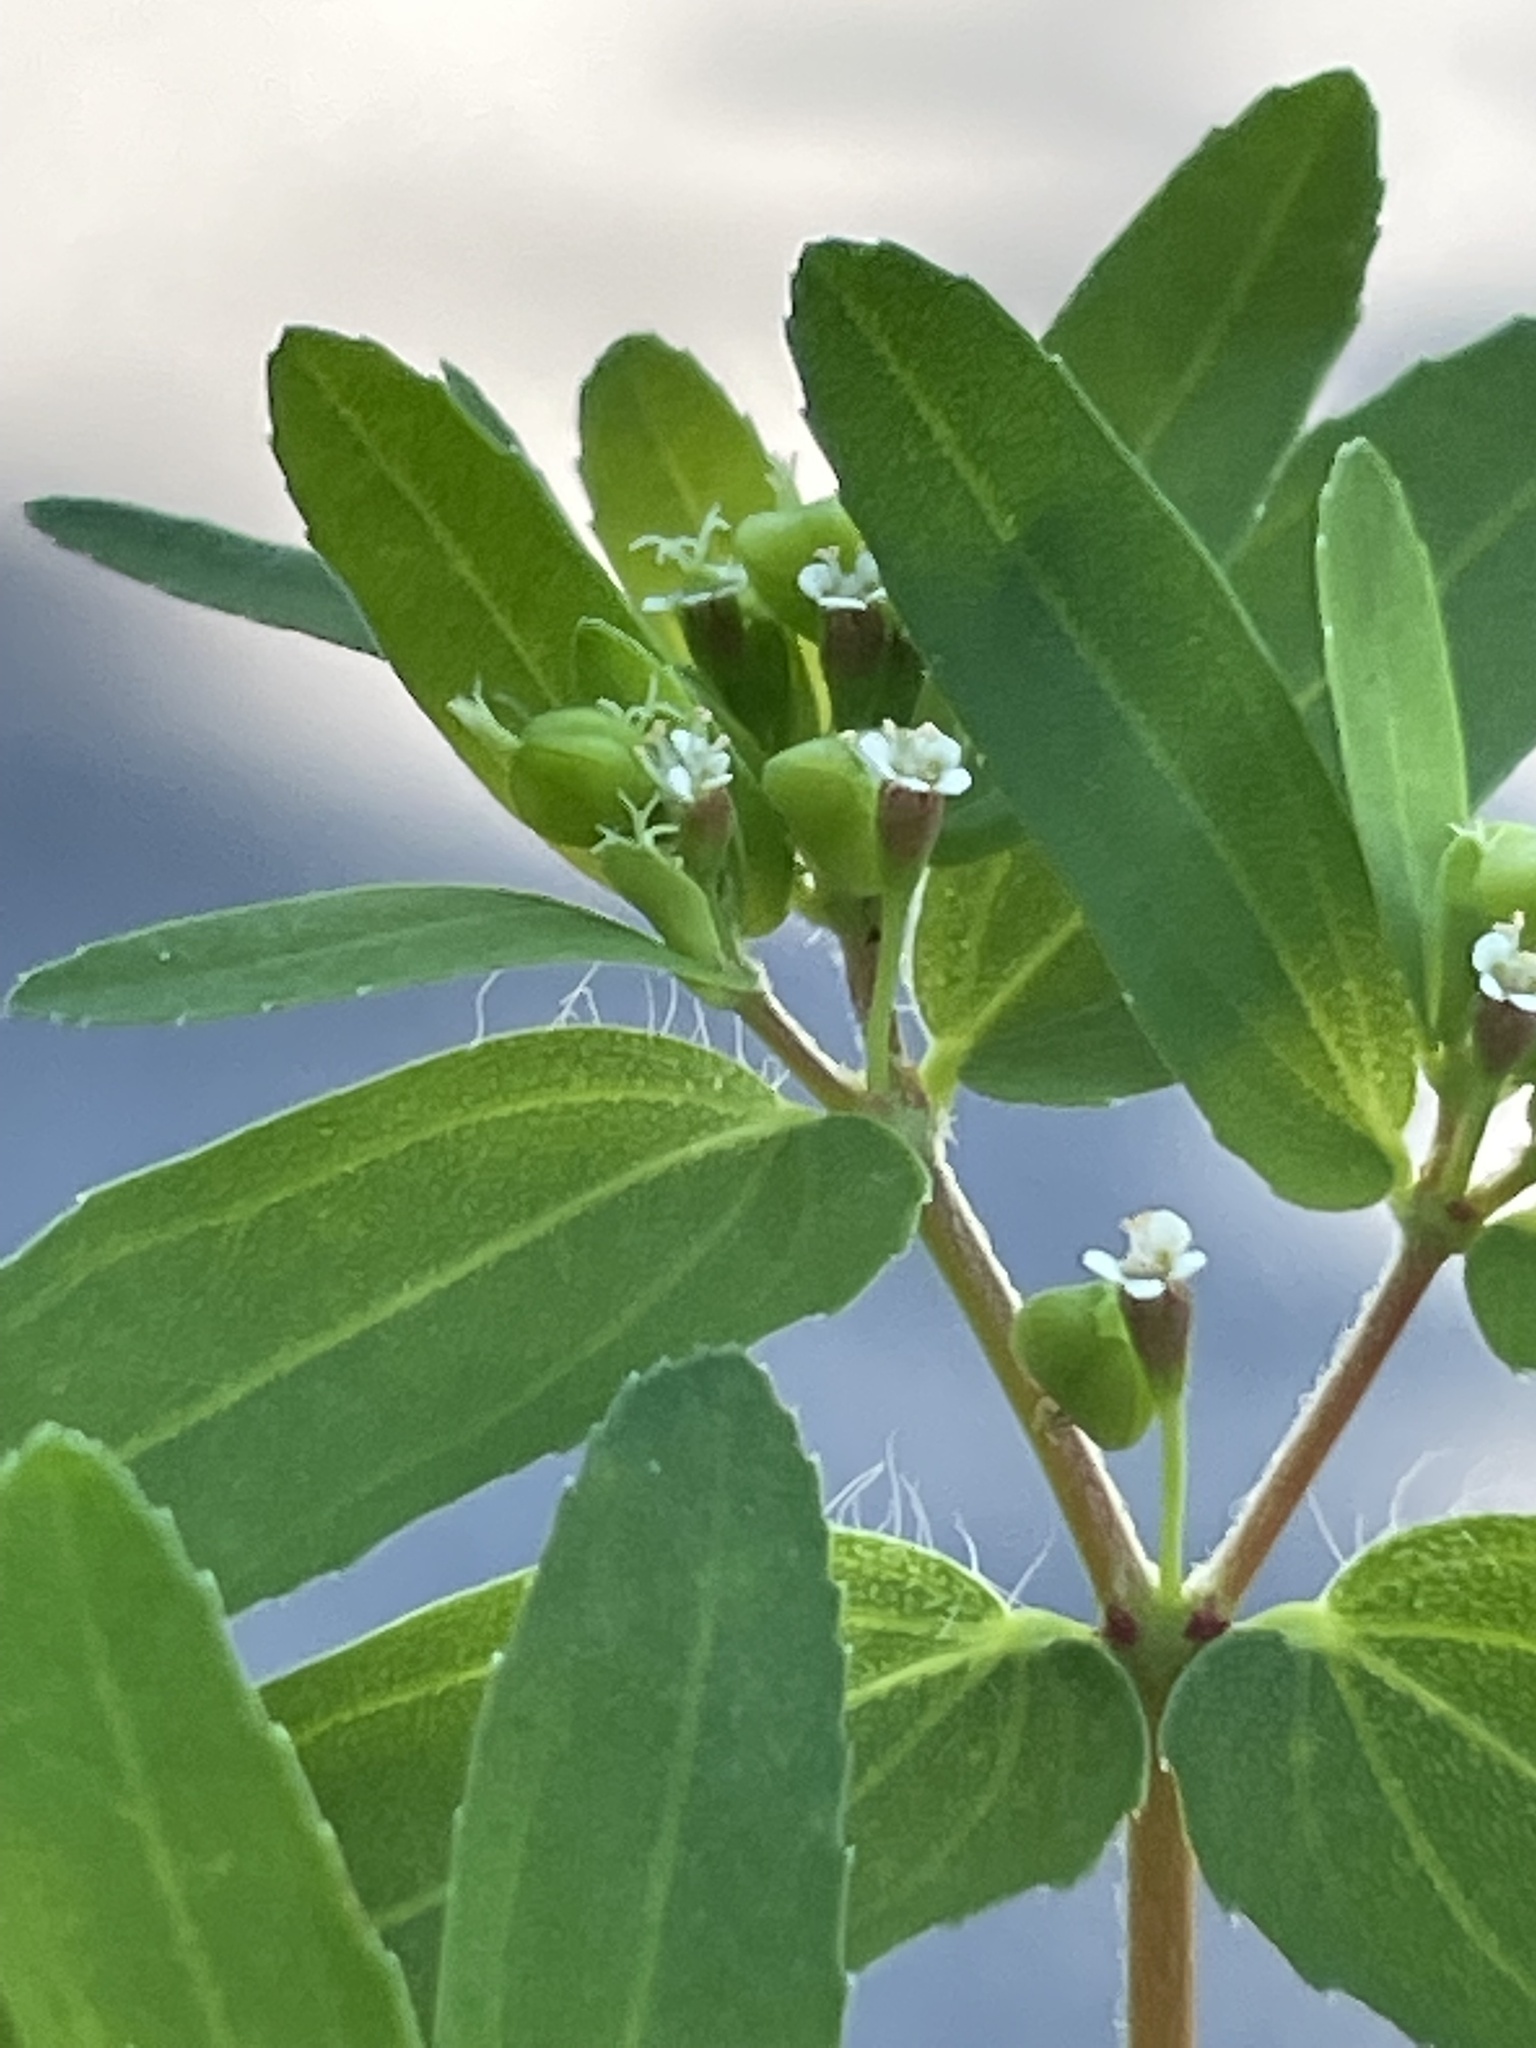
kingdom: Plantae
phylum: Tracheophyta
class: Magnoliopsida
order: Malpighiales
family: Euphorbiaceae
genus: Euphorbia
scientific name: Euphorbia nutans
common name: Eyebane
